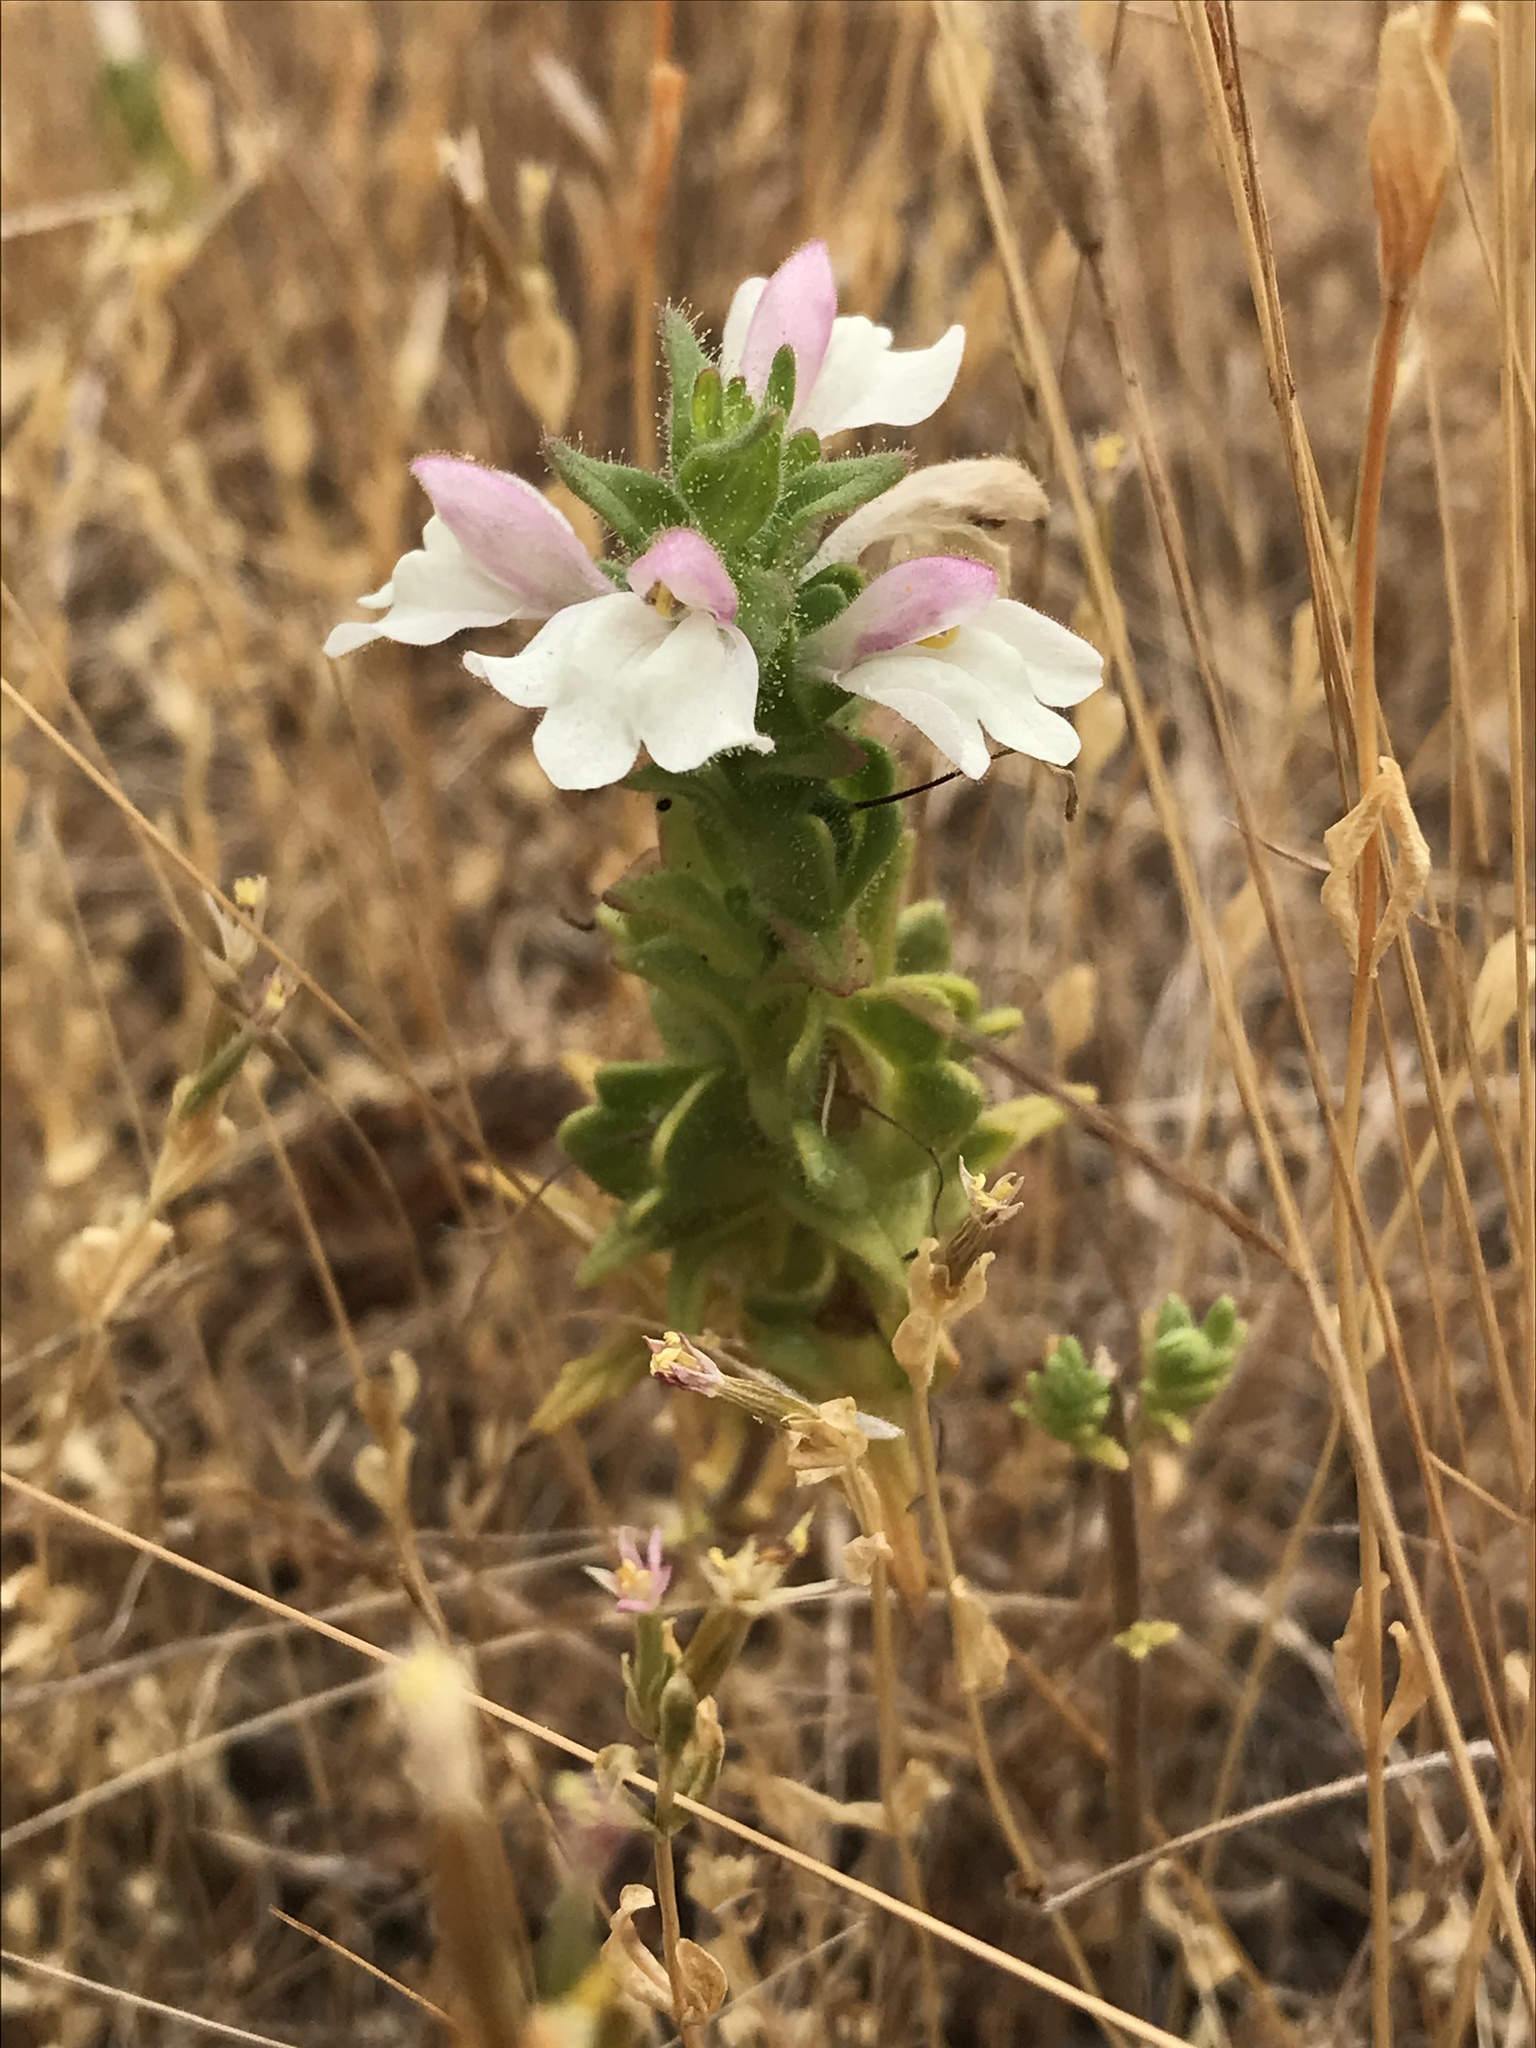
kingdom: Plantae
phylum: Tracheophyta
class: Magnoliopsida
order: Lamiales
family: Orobanchaceae
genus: Bellardia
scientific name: Bellardia trixago
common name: Mediterranean lineseed
